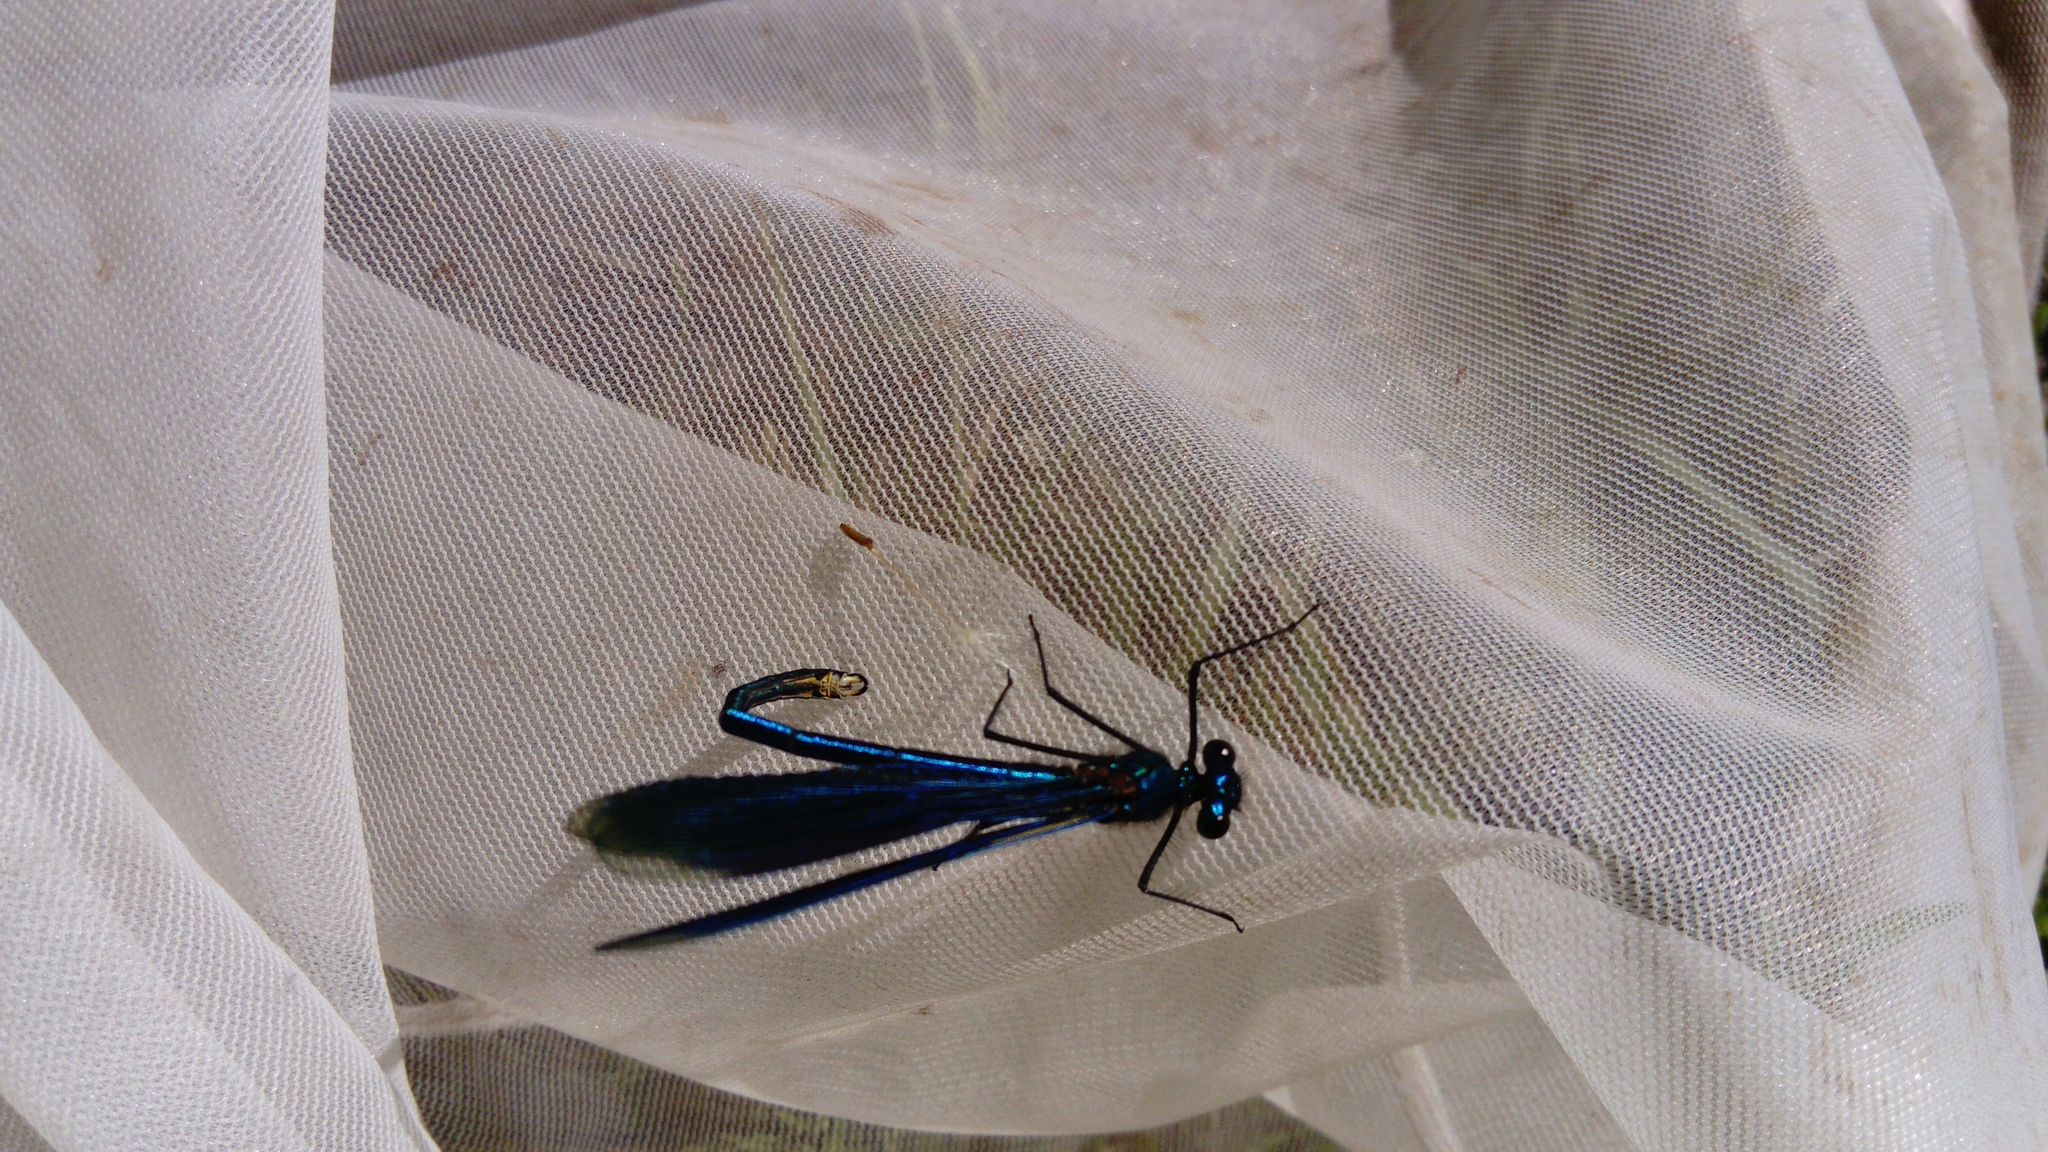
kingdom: Animalia
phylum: Arthropoda
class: Insecta
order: Odonata
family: Calopterygidae
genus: Calopteryx
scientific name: Calopteryx splendens
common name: Banded demoiselle
